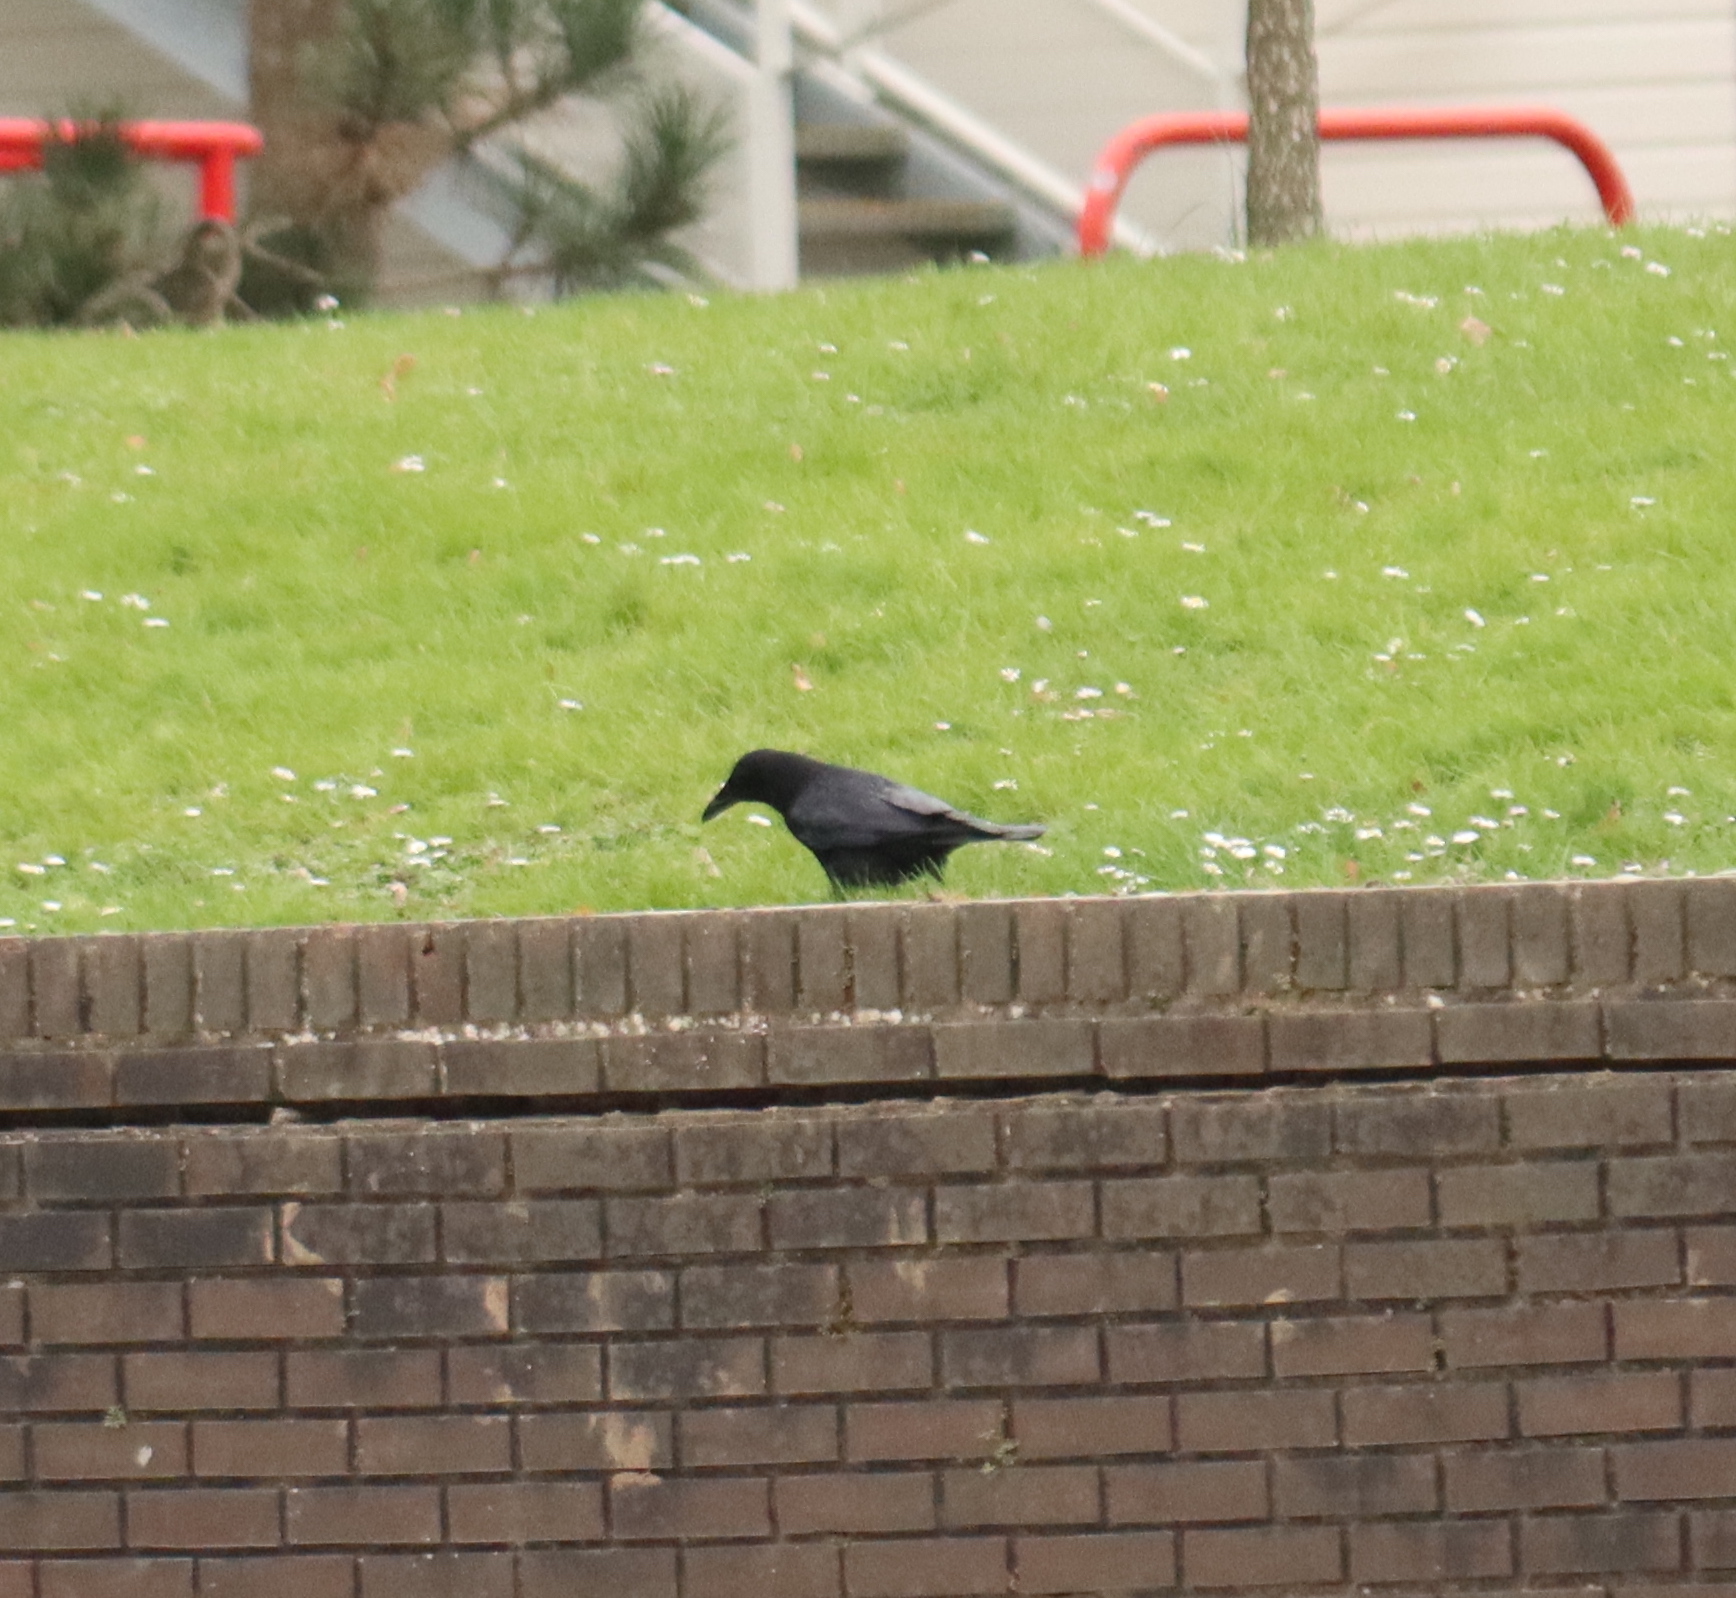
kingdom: Animalia
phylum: Chordata
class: Aves
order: Passeriformes
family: Corvidae
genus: Corvus
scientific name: Corvus corone
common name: Carrion crow
